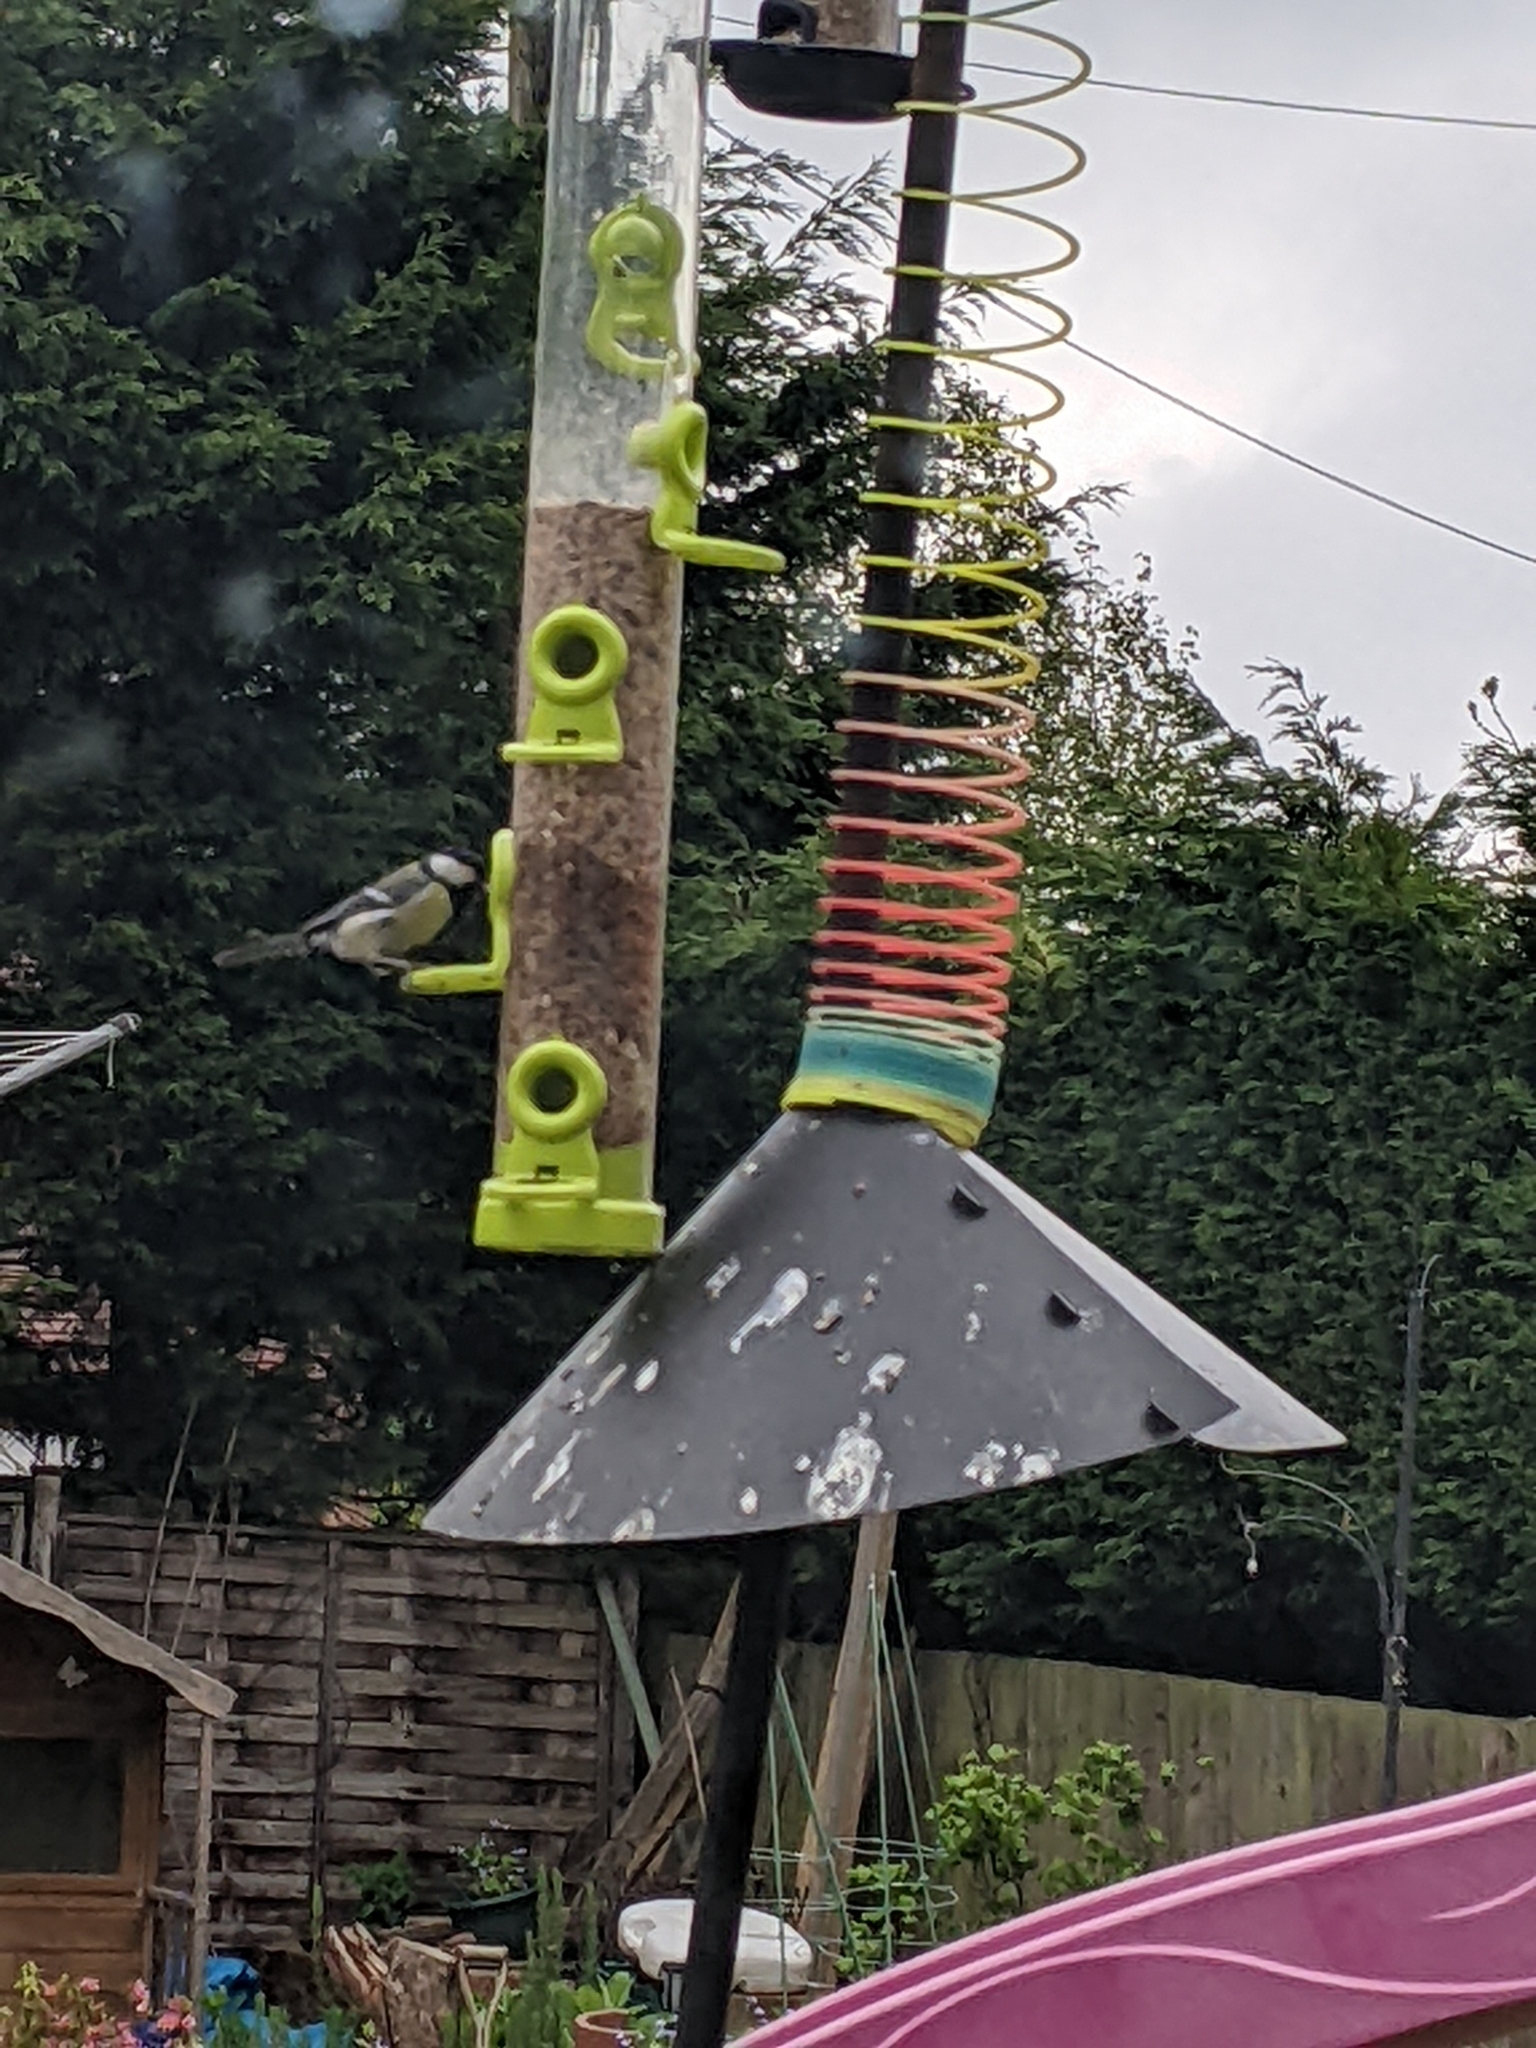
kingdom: Animalia
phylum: Chordata
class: Aves
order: Passeriformes
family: Paridae
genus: Parus
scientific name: Parus major
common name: Great tit
